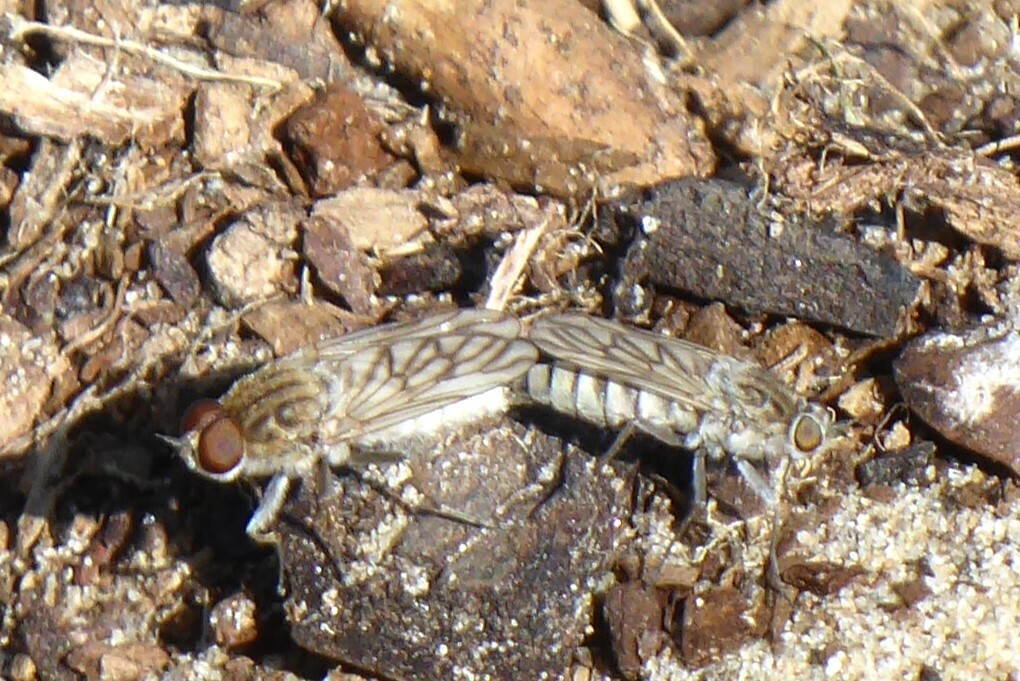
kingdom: Animalia
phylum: Arthropoda
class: Insecta
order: Diptera
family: Therevidae
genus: Anabarhynchus
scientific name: Anabarhynchus arenarius
